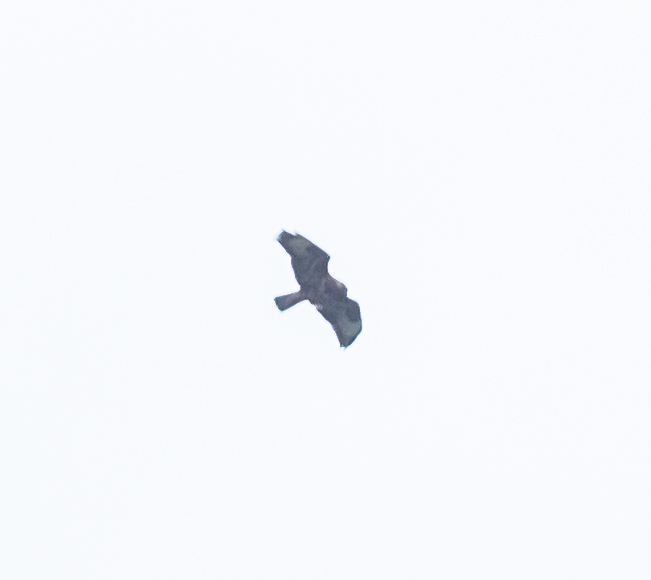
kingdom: Animalia
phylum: Chordata
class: Aves
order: Accipitriformes
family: Accipitridae
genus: Buteo
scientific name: Buteo buteo
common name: Common buzzard
